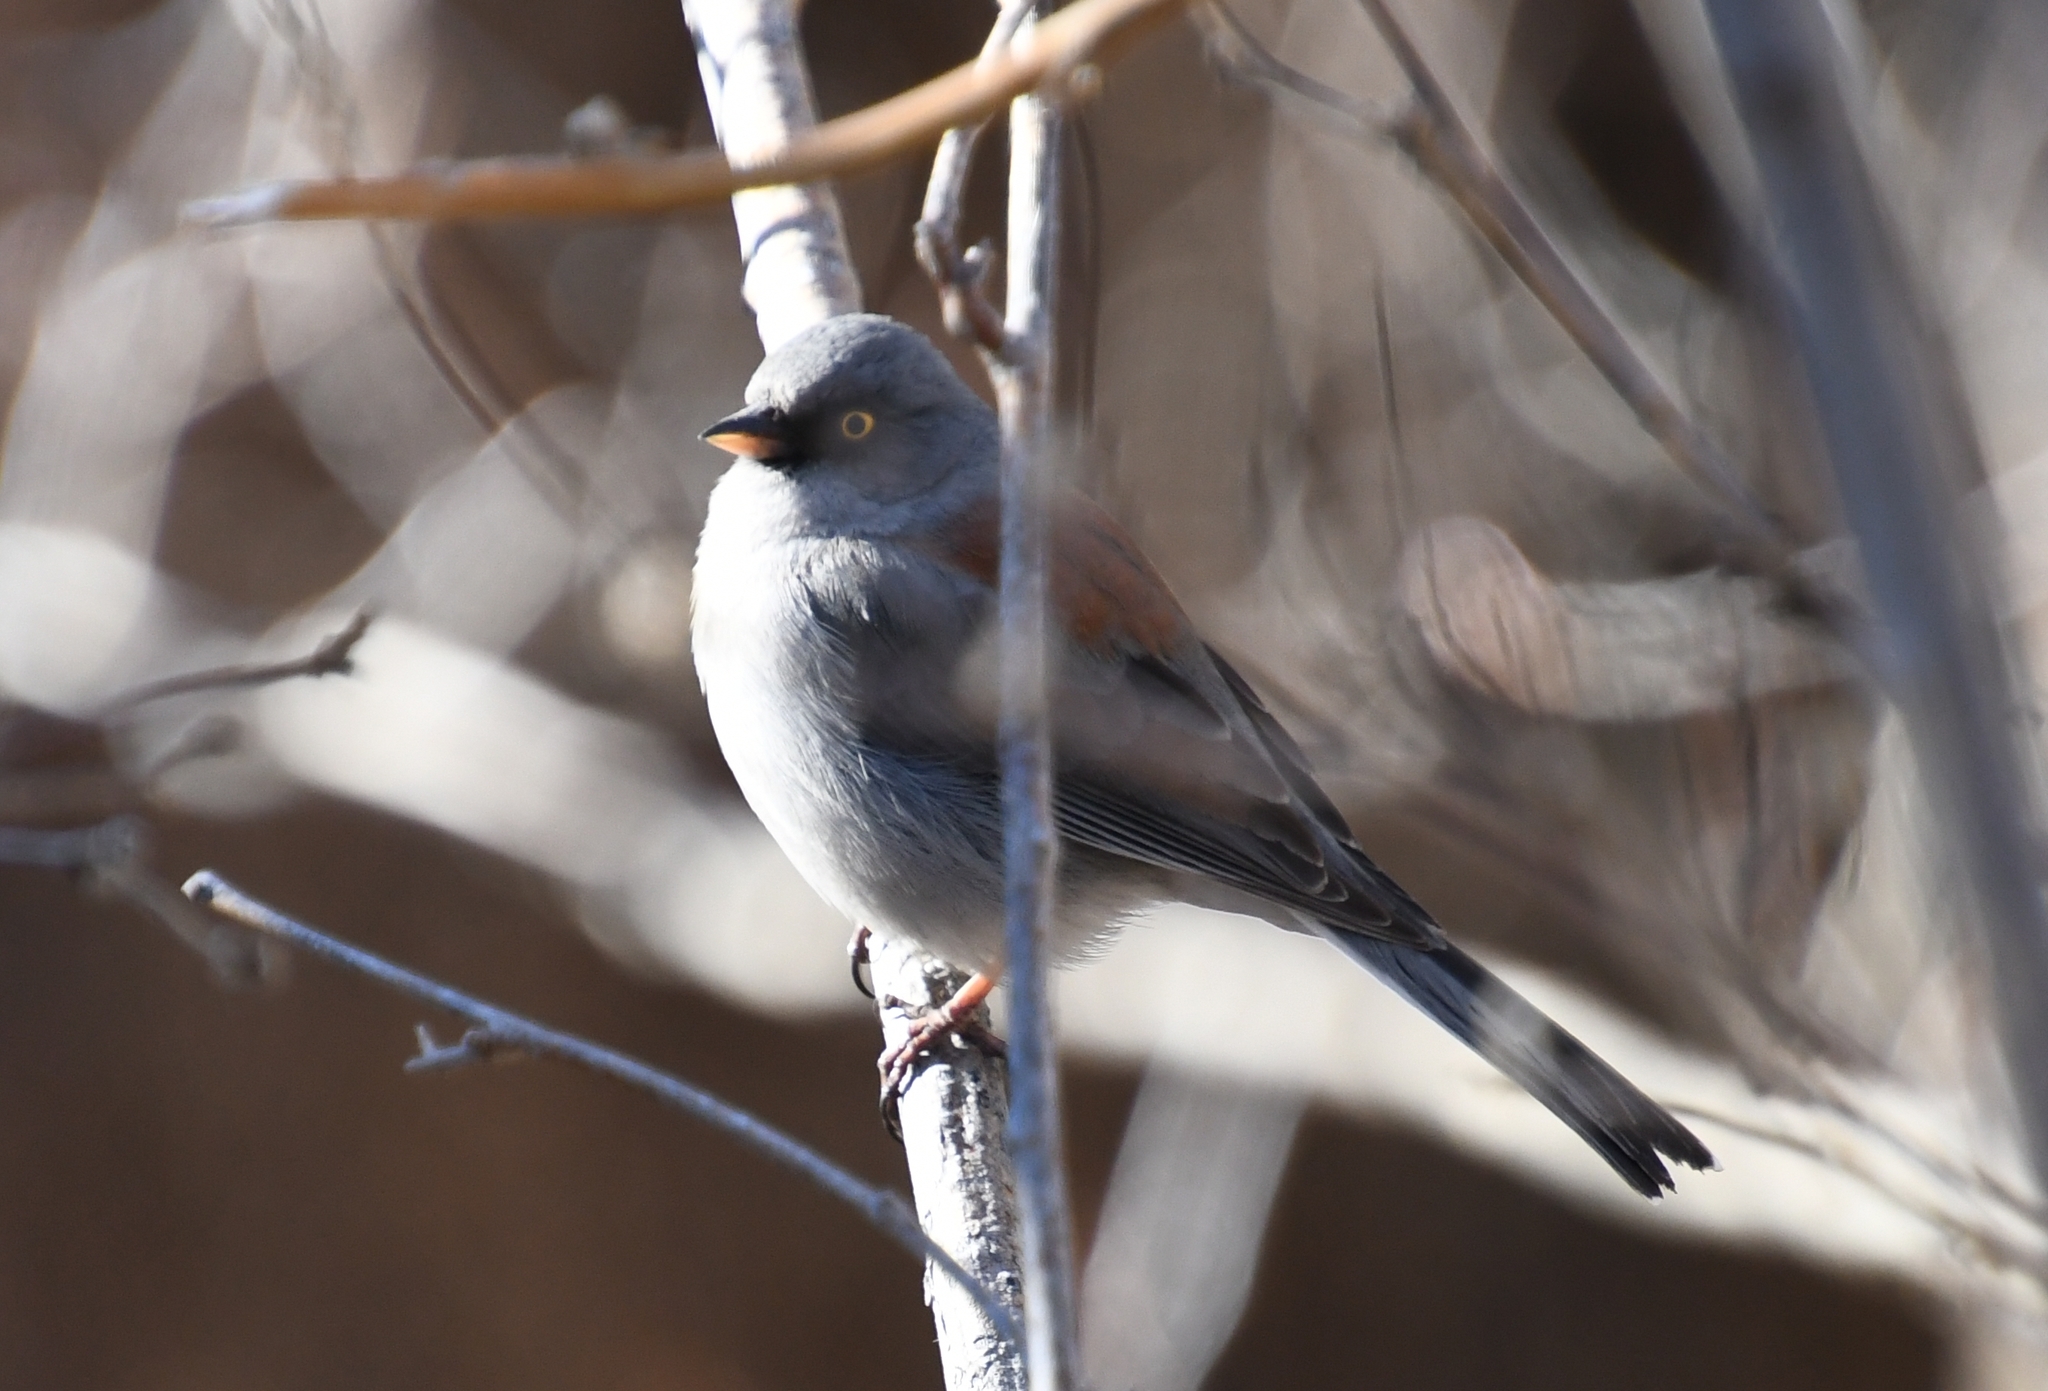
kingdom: Animalia
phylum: Chordata
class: Aves
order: Passeriformes
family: Passerellidae
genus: Junco
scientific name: Junco phaeonotus
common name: Yellow-eyed junco
